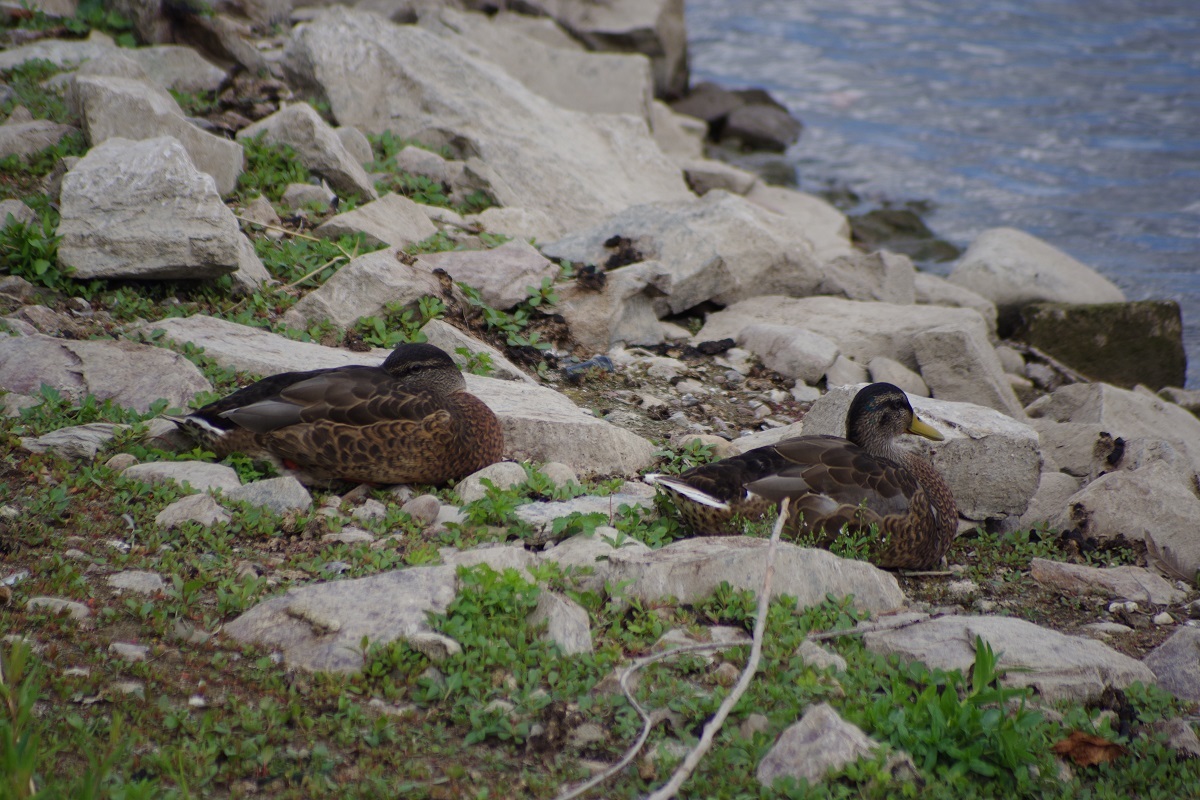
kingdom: Animalia
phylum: Chordata
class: Aves
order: Anseriformes
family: Anatidae
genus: Anas
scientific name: Anas platyrhynchos
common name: Mallard
